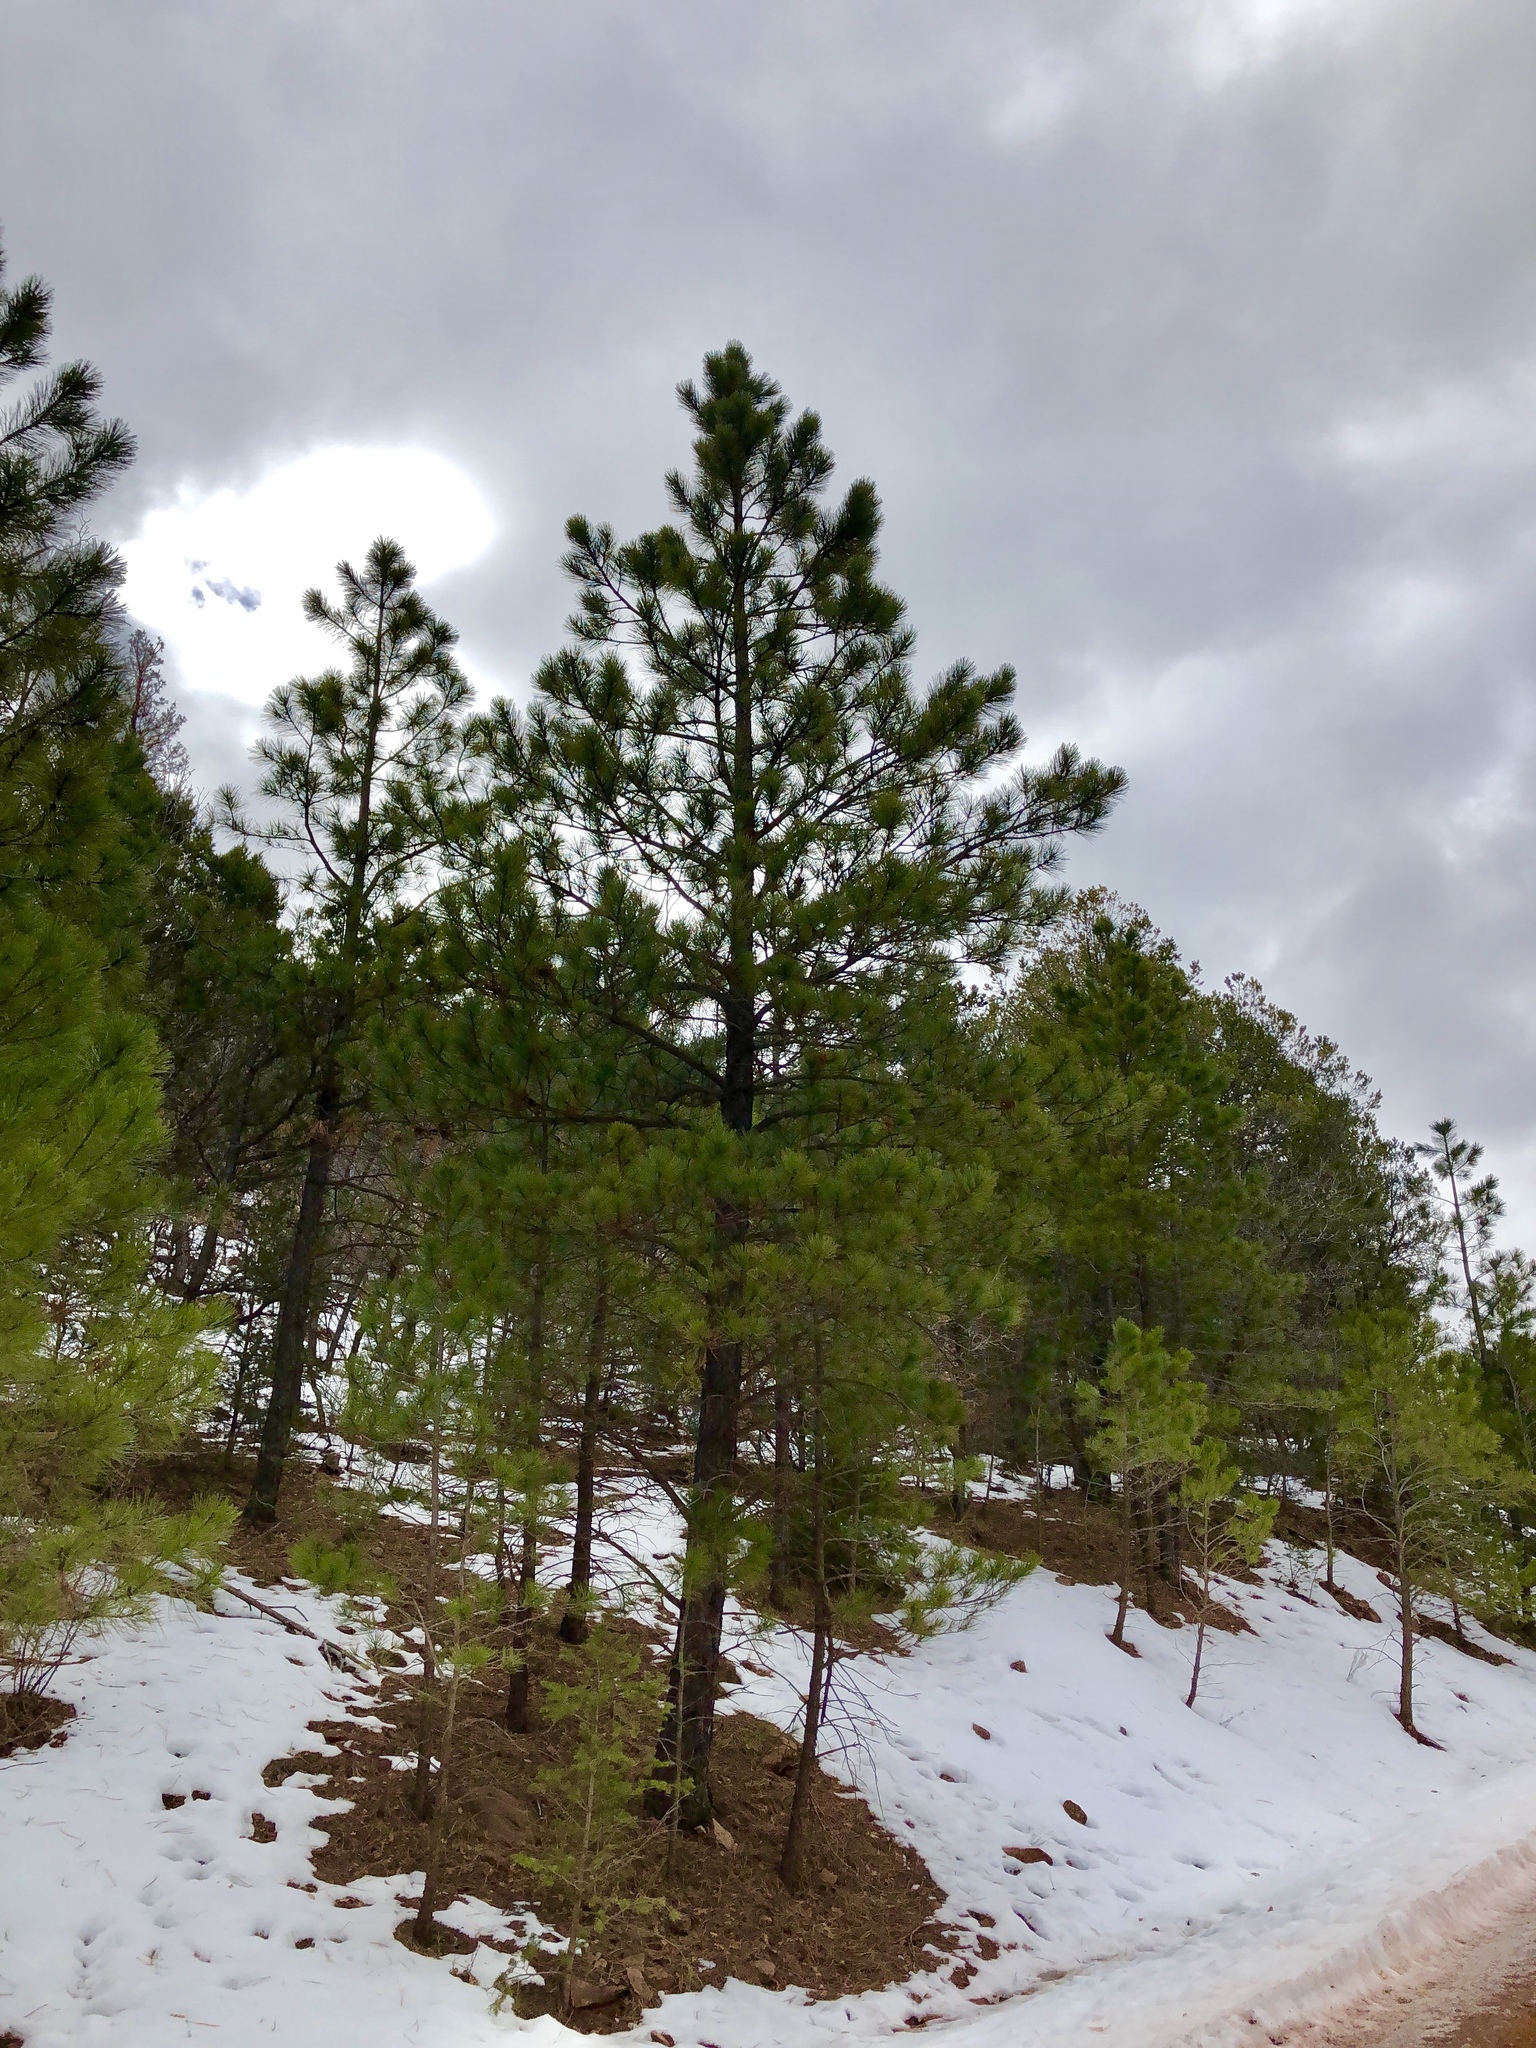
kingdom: Plantae
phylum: Tracheophyta
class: Pinopsida
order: Pinales
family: Pinaceae
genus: Pinus
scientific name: Pinus ponderosa
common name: Western yellow-pine
